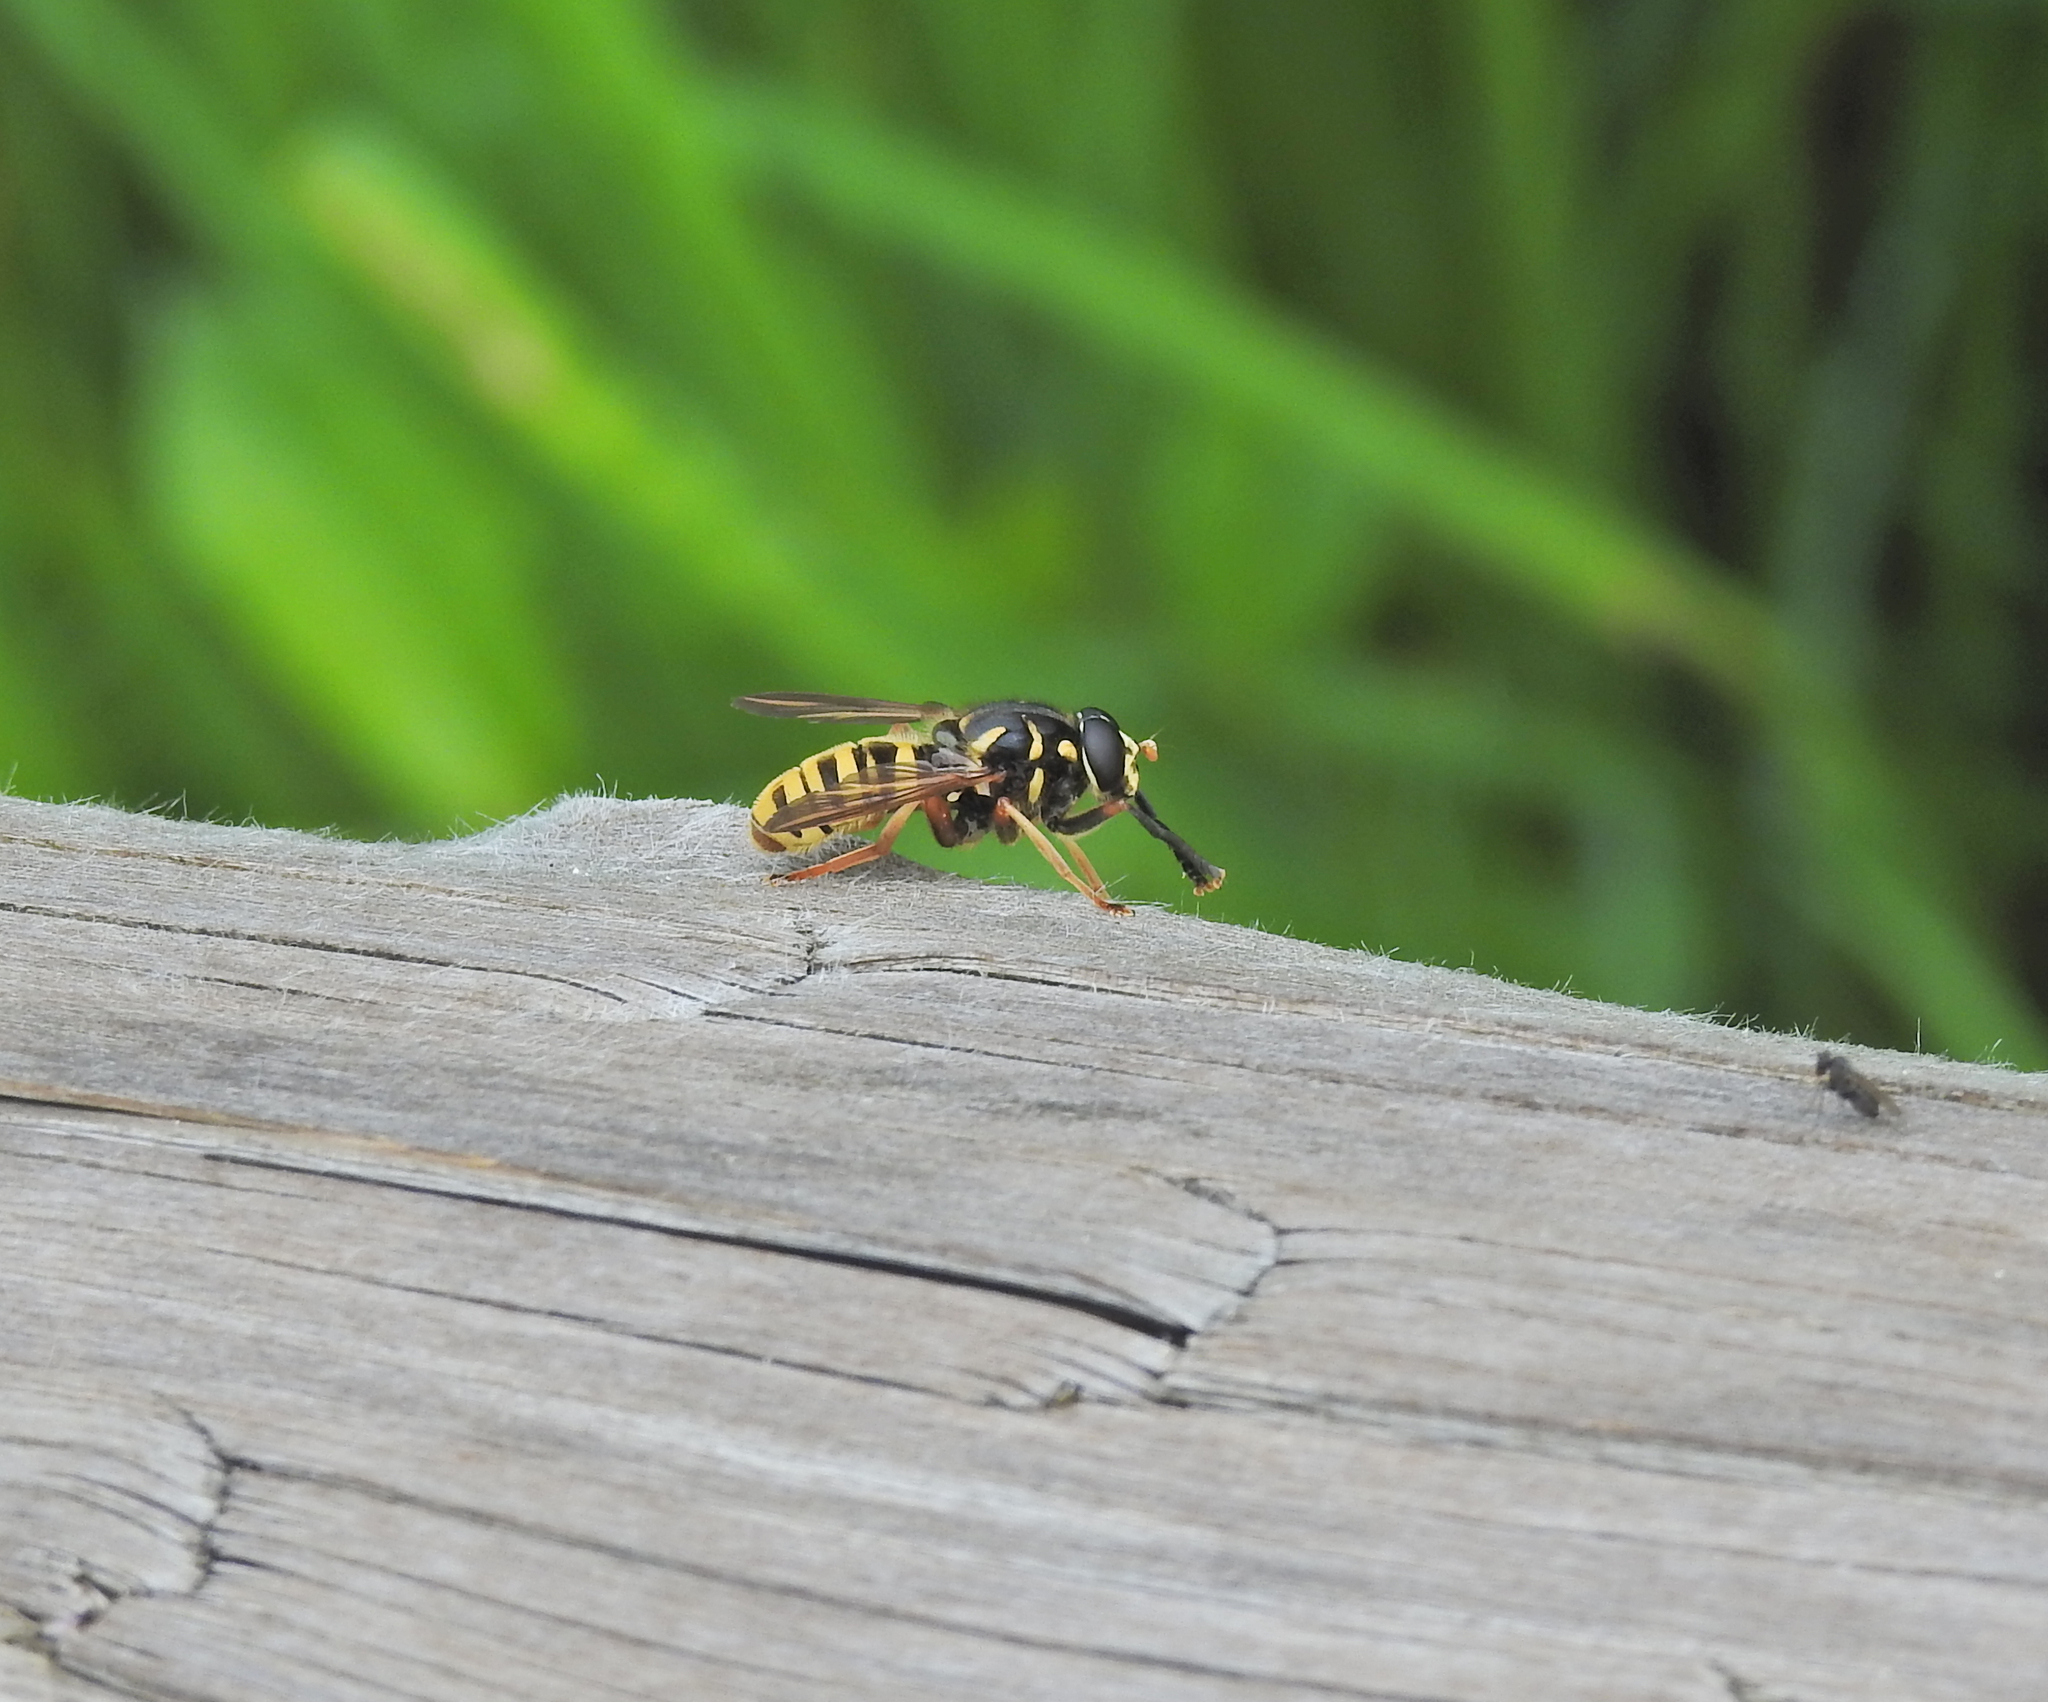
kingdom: Animalia
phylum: Arthropoda
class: Insecta
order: Diptera
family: Syrphidae
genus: Temnostoma
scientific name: Temnostoma vespiforme
